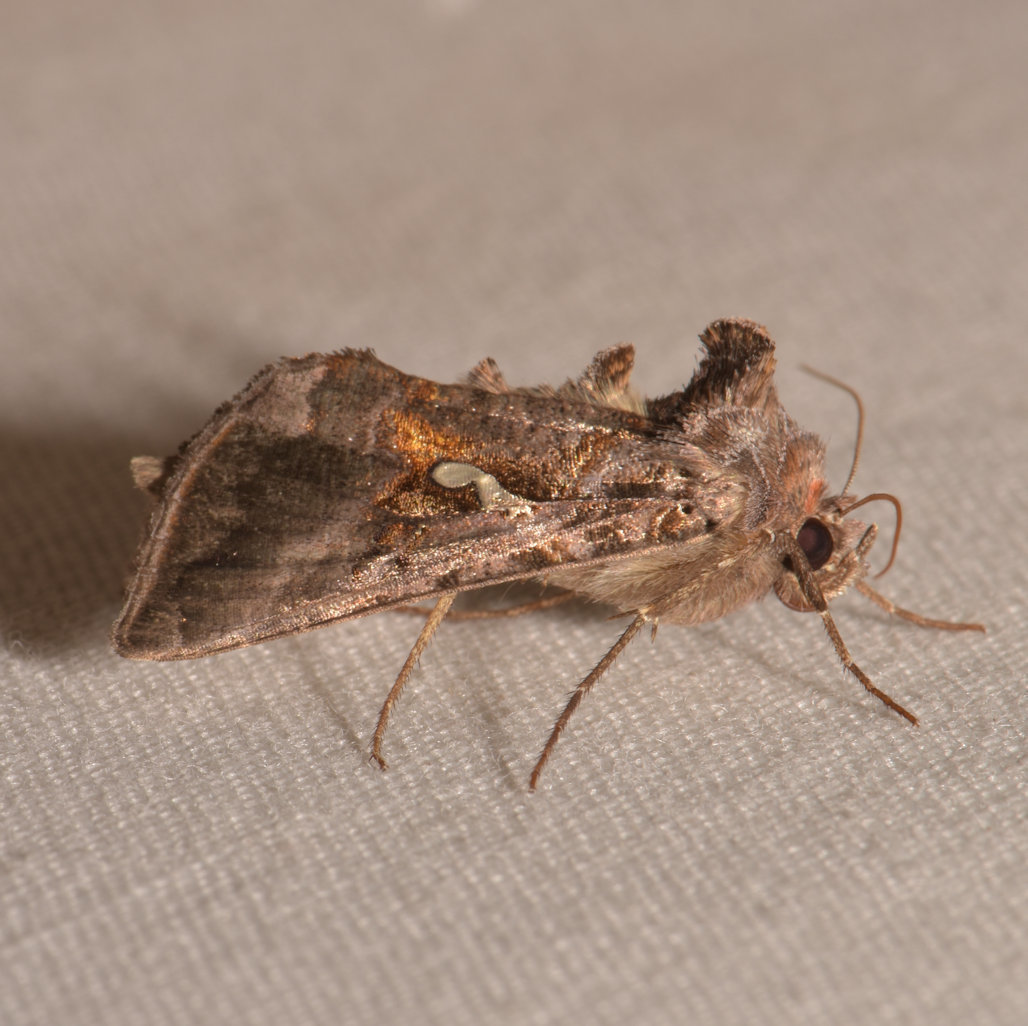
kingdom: Animalia
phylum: Arthropoda
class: Insecta
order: Lepidoptera
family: Noctuidae
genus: Autographa
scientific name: Autographa precationis
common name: Common looper moth
